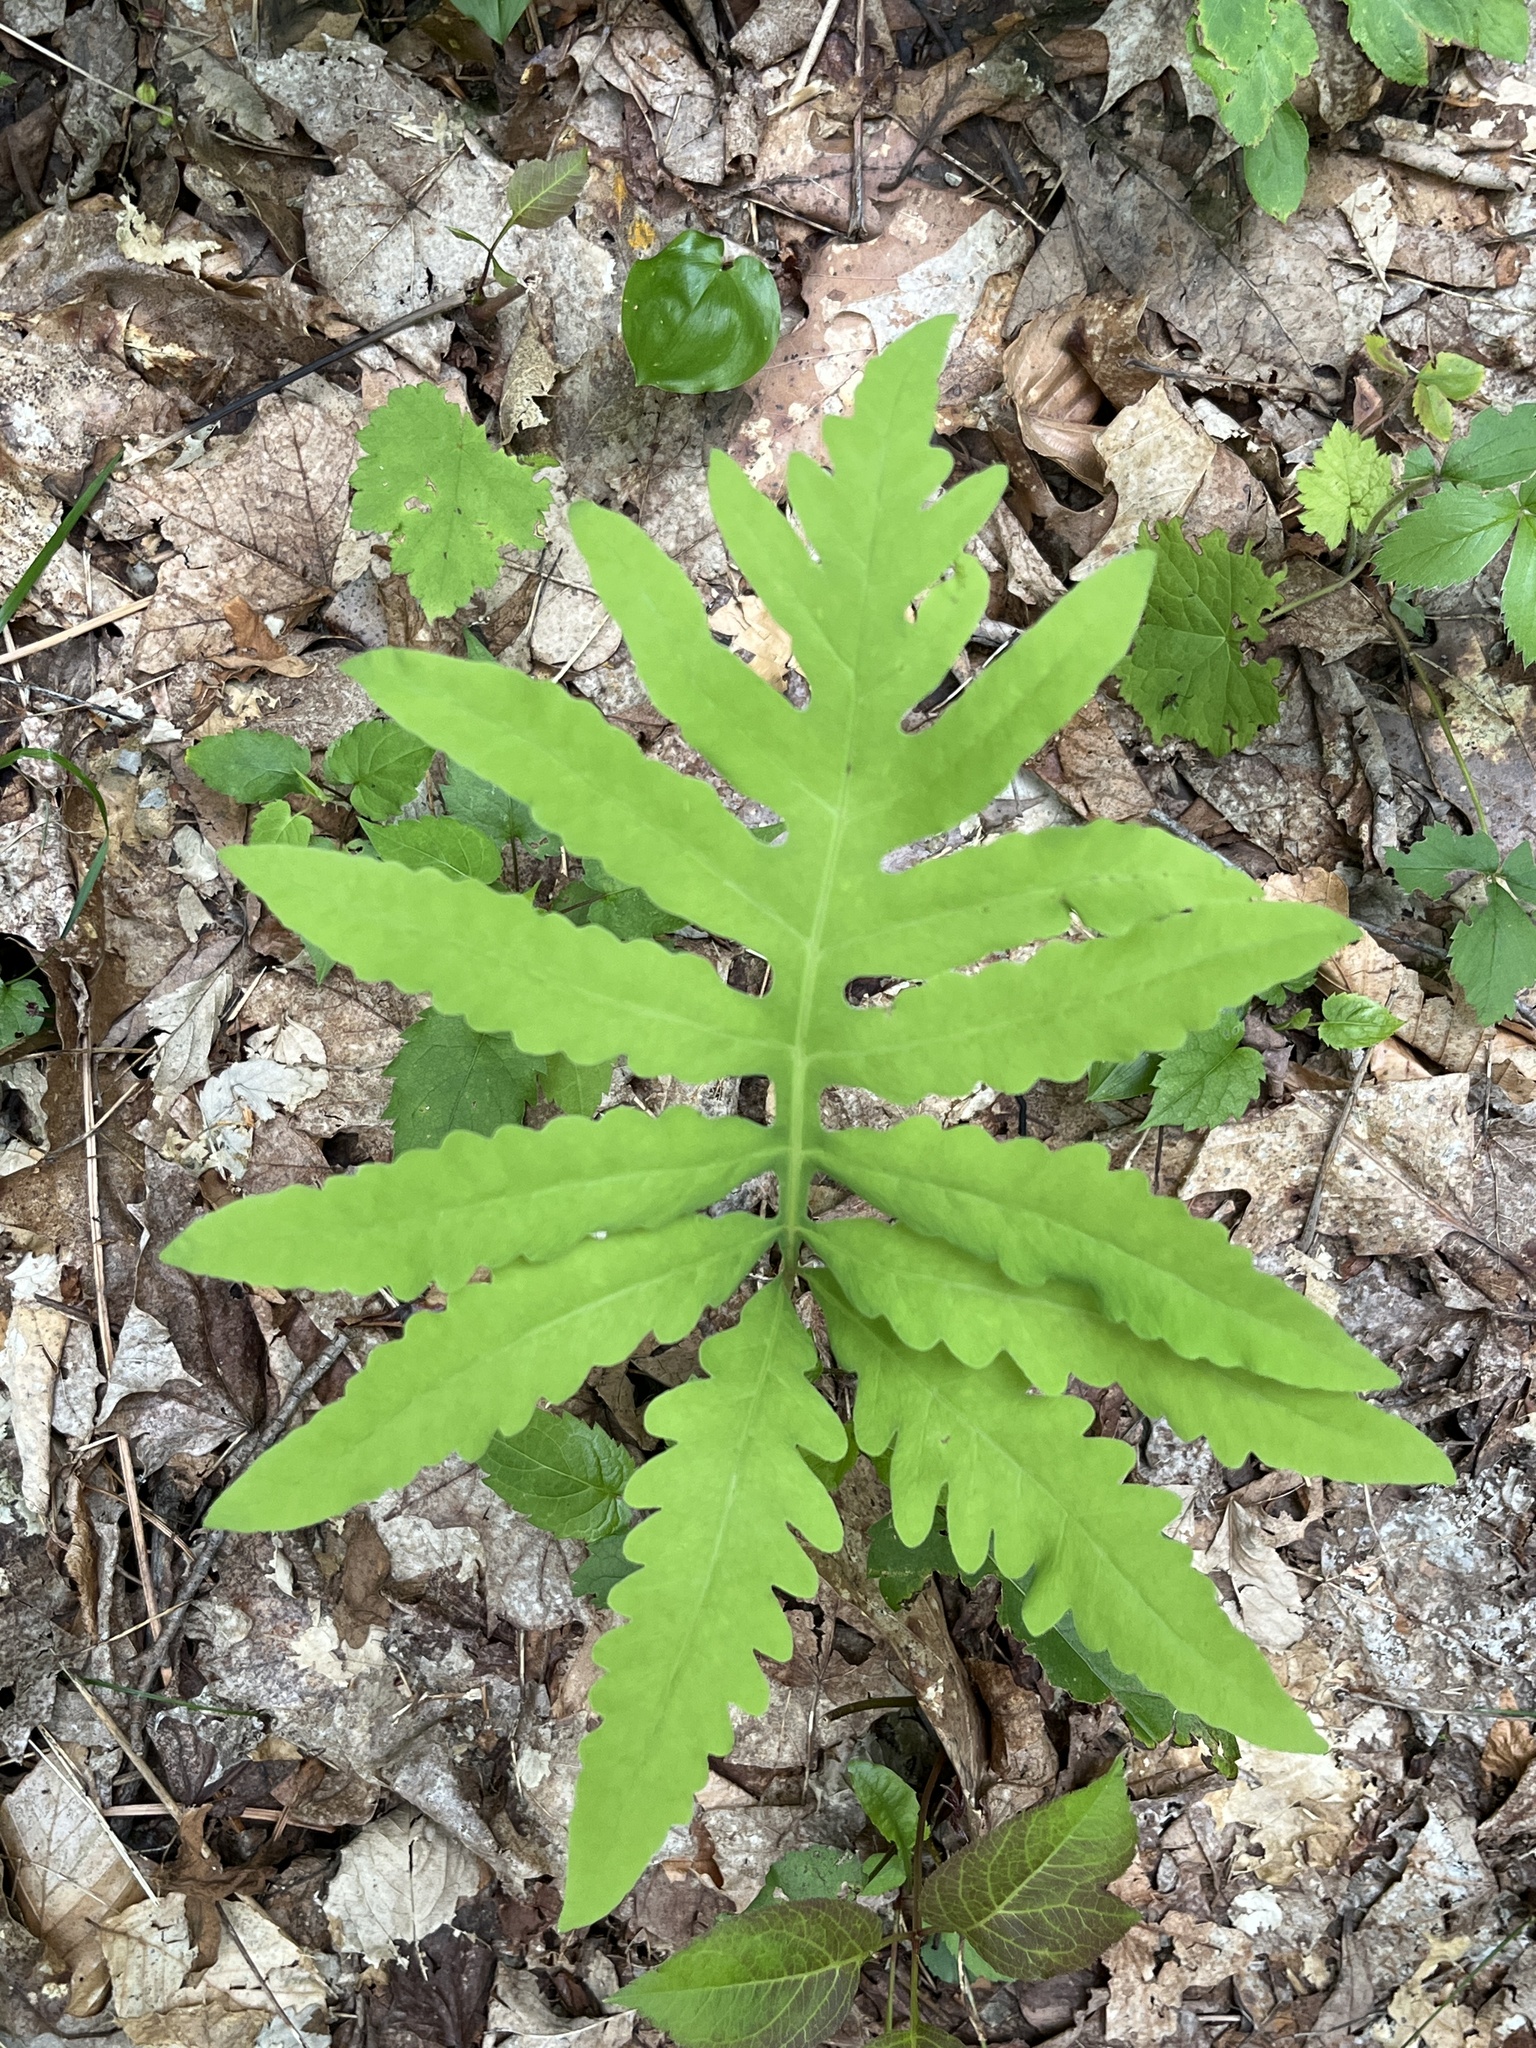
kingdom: Plantae
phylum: Tracheophyta
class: Polypodiopsida
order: Polypodiales
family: Onocleaceae
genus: Onoclea
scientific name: Onoclea sensibilis
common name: Sensitive fern
